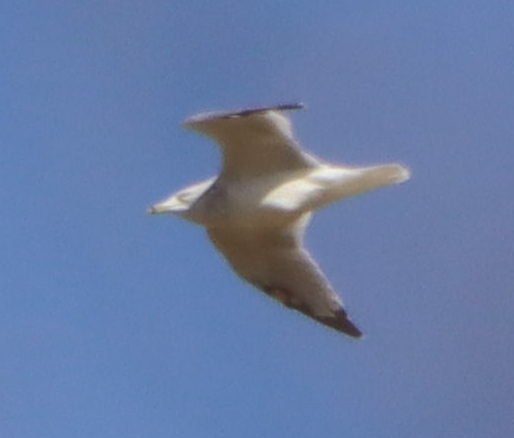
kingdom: Animalia
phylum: Chordata
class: Aves
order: Charadriiformes
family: Laridae
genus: Larus
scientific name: Larus delawarensis
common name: Ring-billed gull
